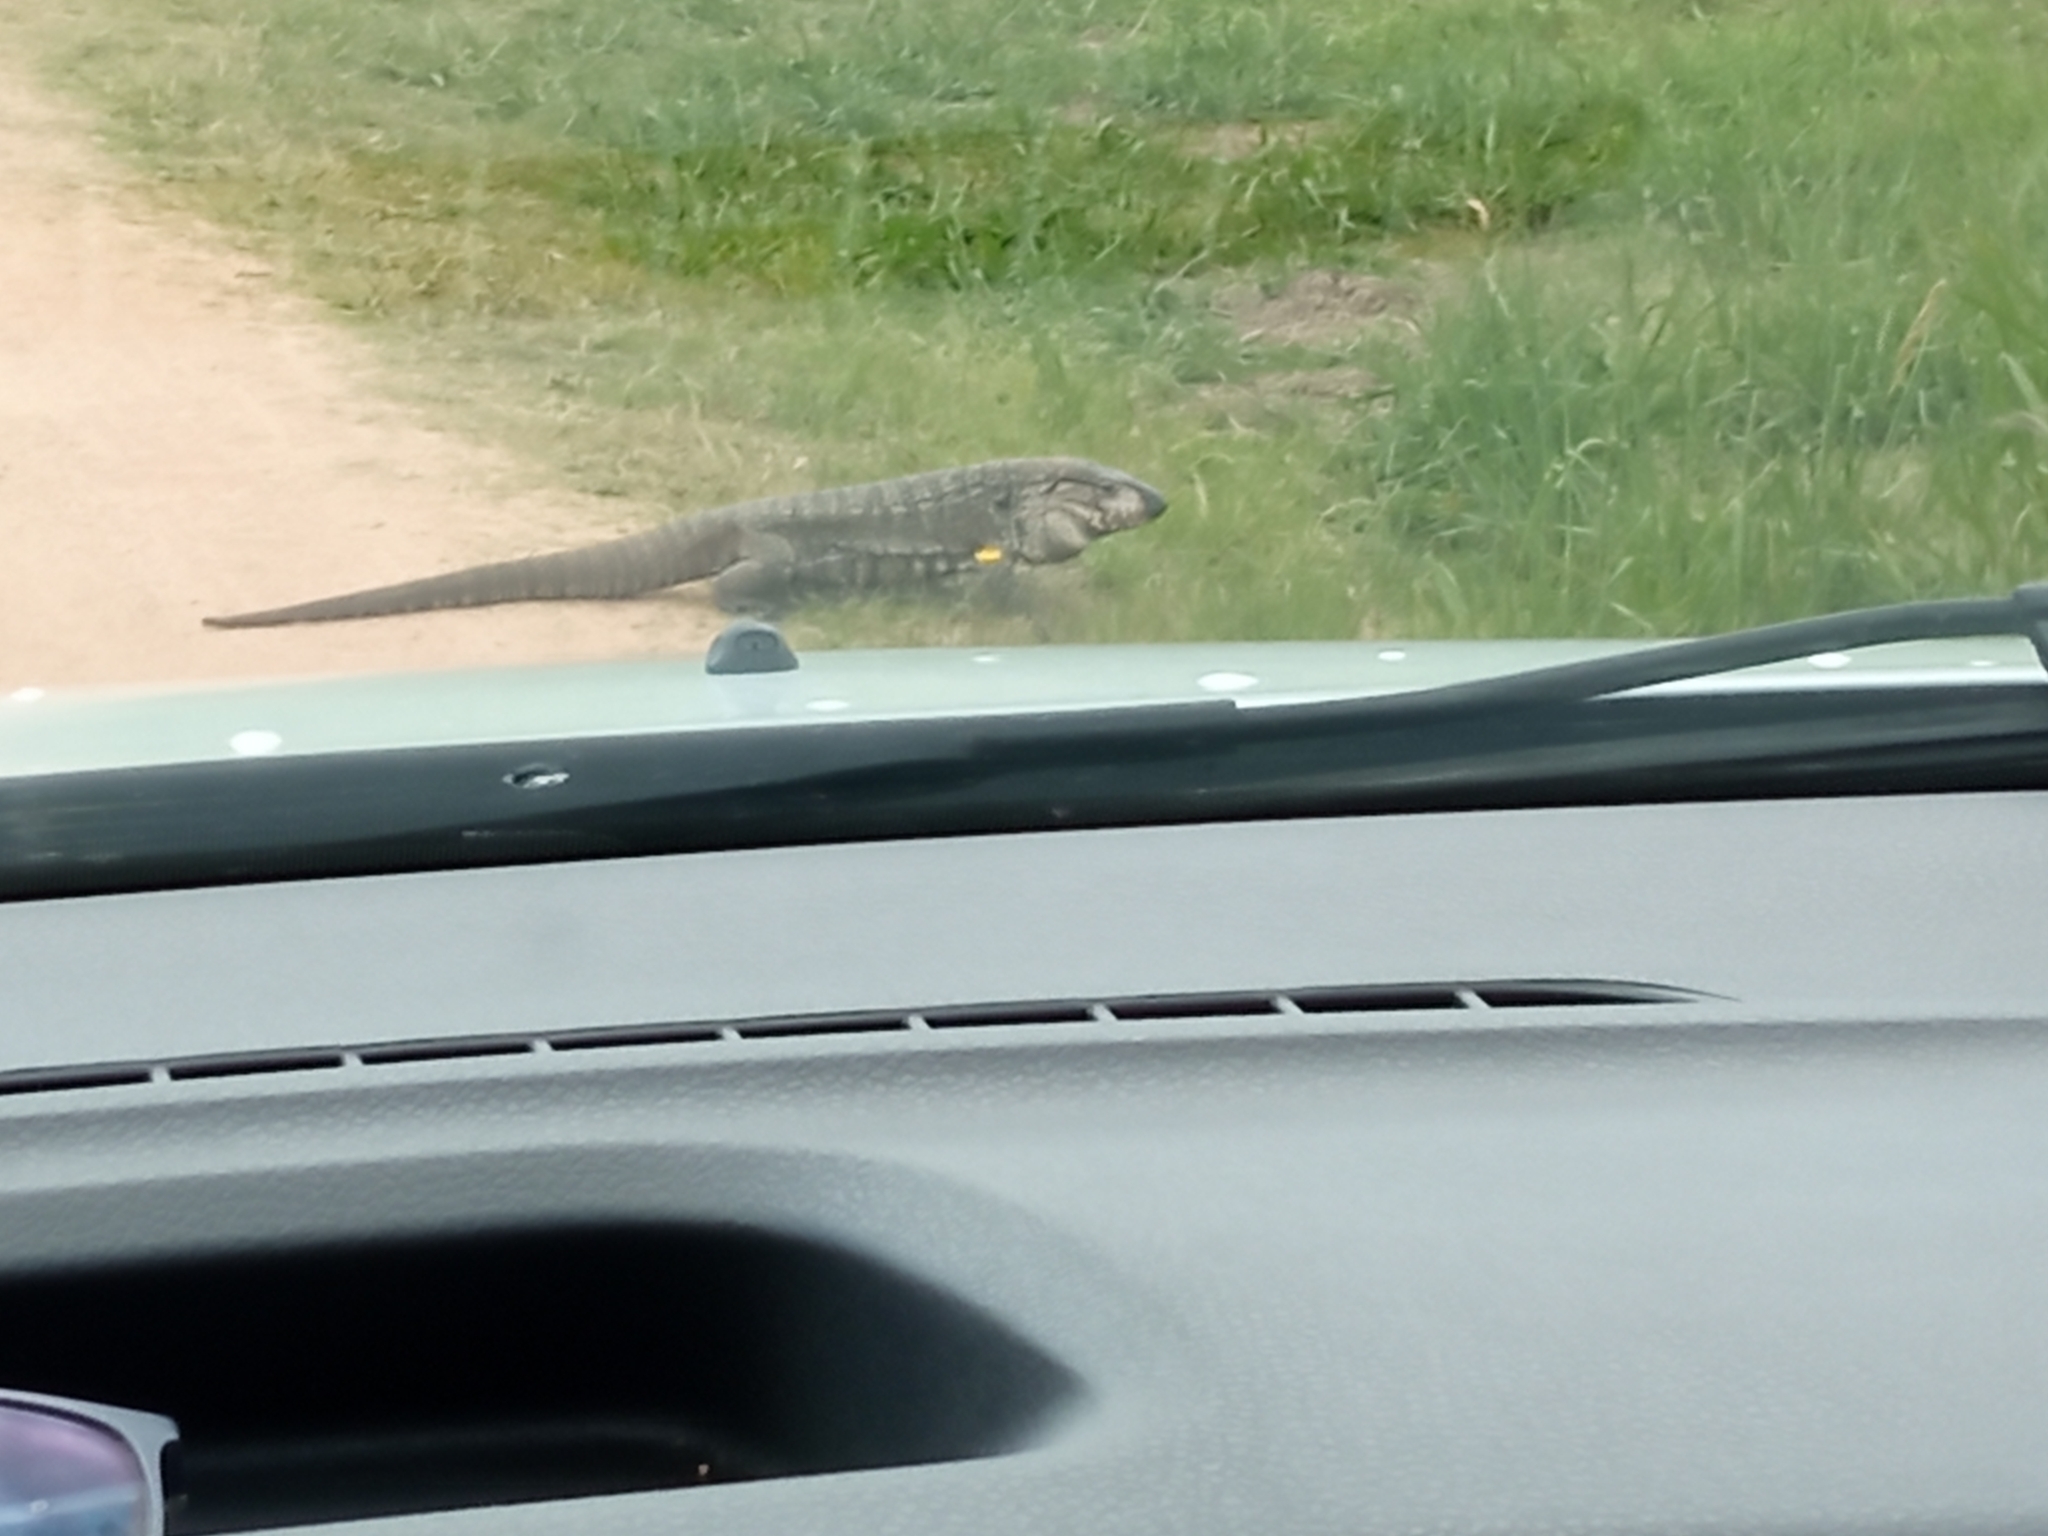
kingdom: Animalia
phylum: Chordata
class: Squamata
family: Teiidae
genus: Salvator
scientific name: Salvator merianae
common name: Argentine black and white tegu
